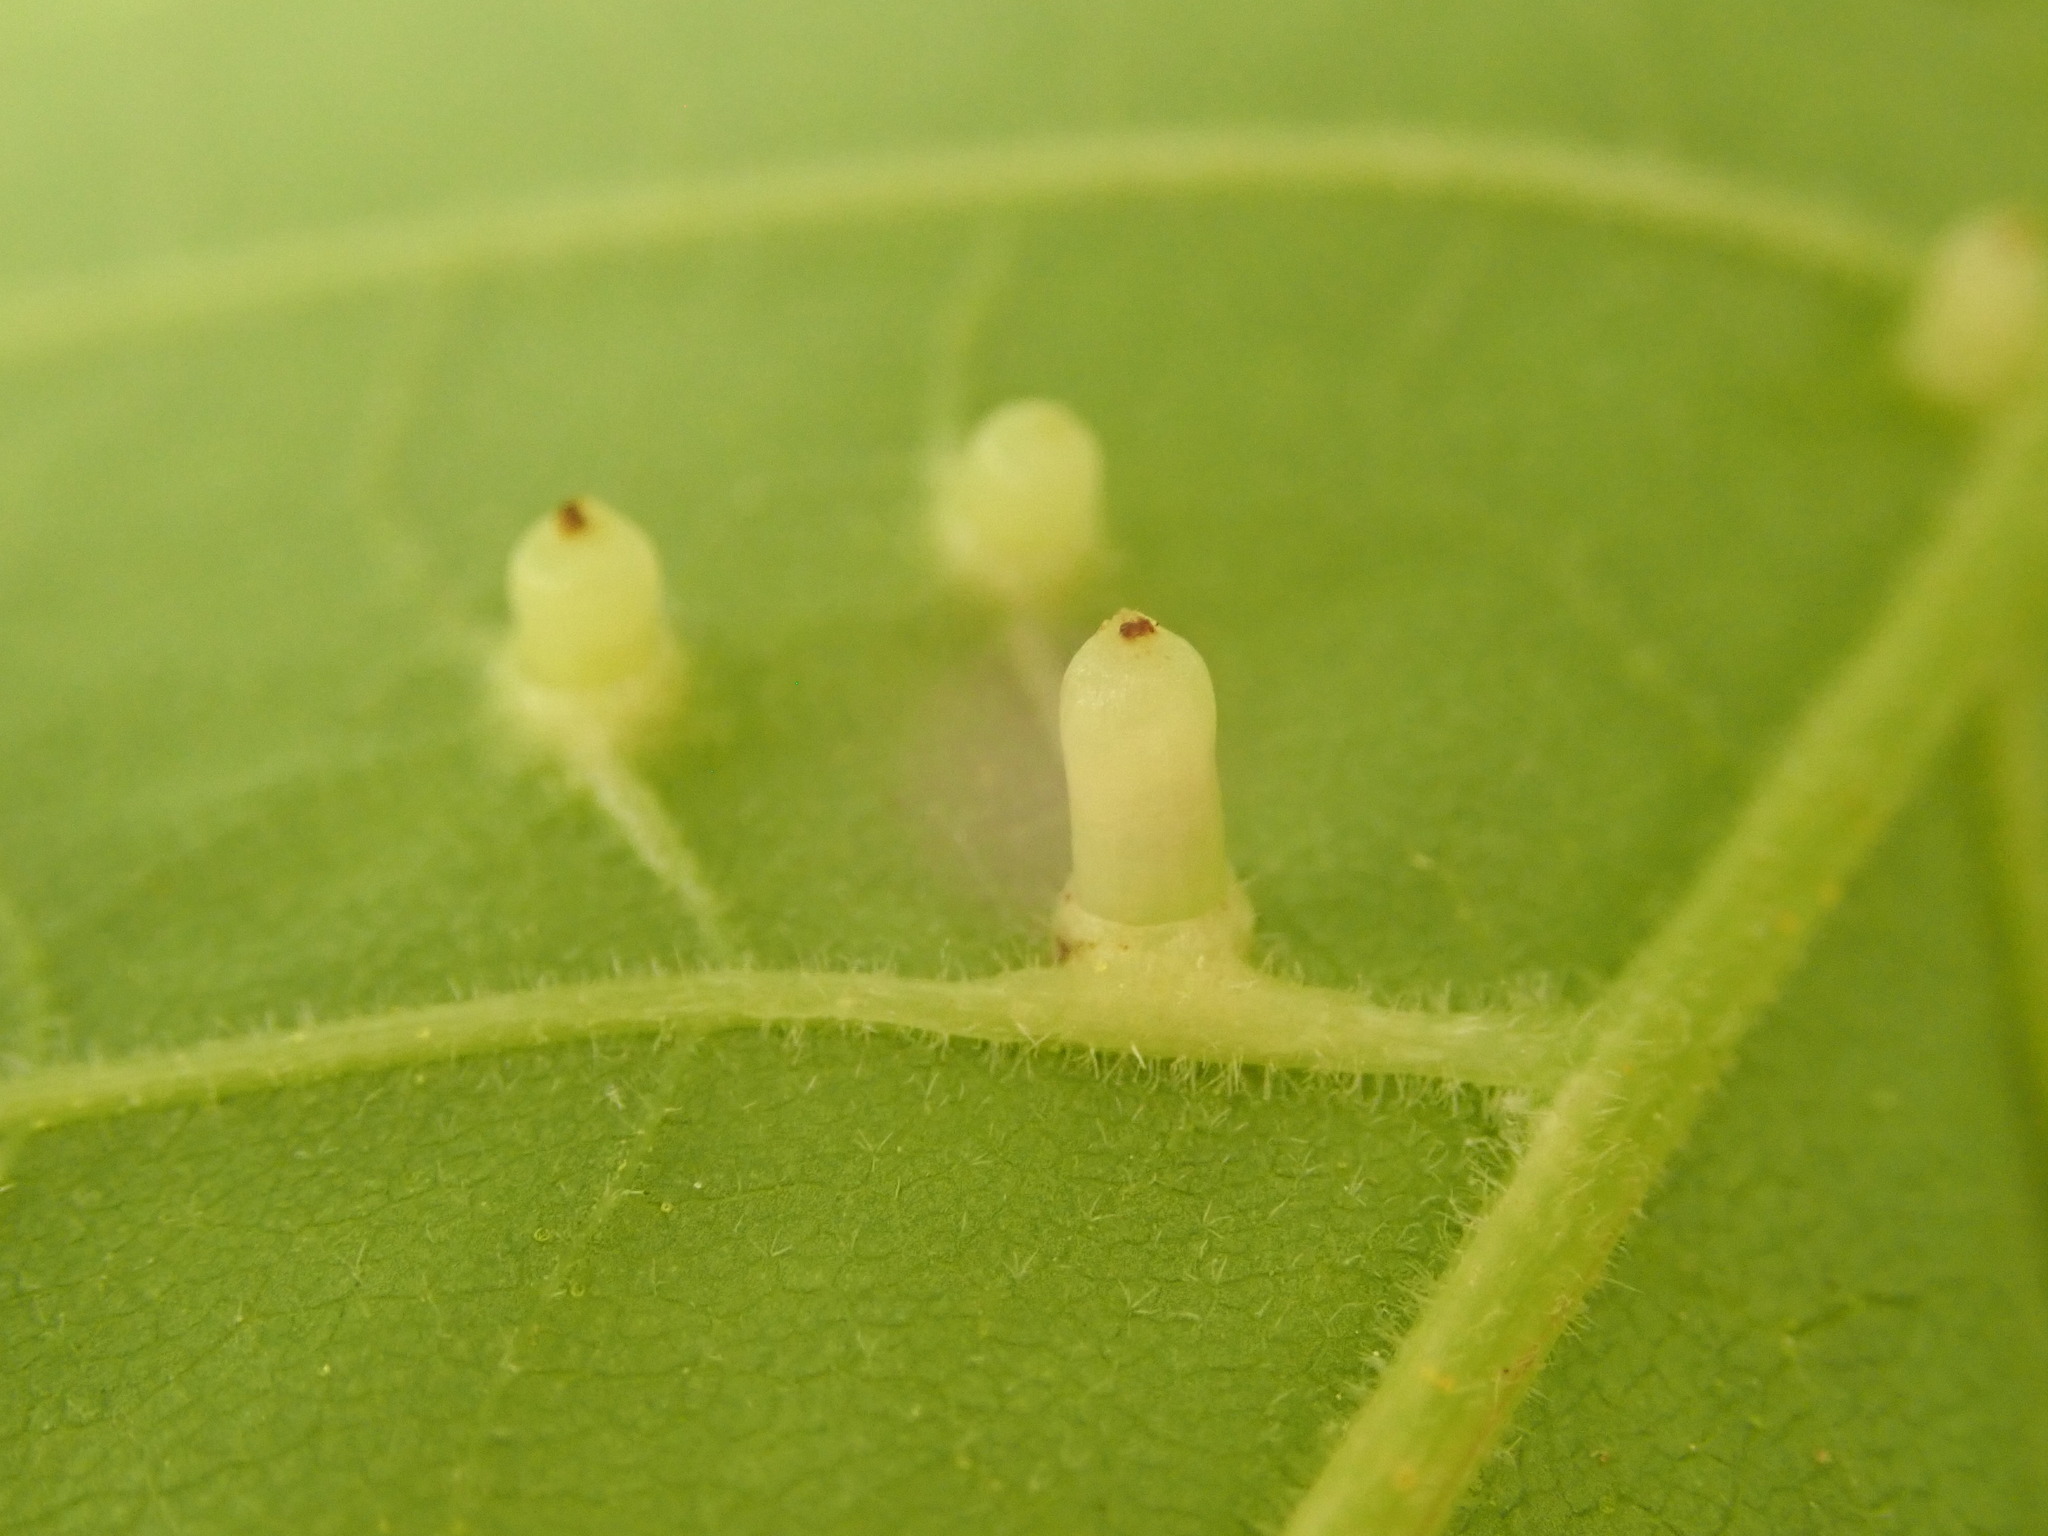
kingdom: Animalia
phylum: Arthropoda
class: Insecta
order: Diptera
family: Cecidomyiidae
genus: Caryomyia
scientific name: Caryomyia tubicola
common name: Hickory bullet gall midge
